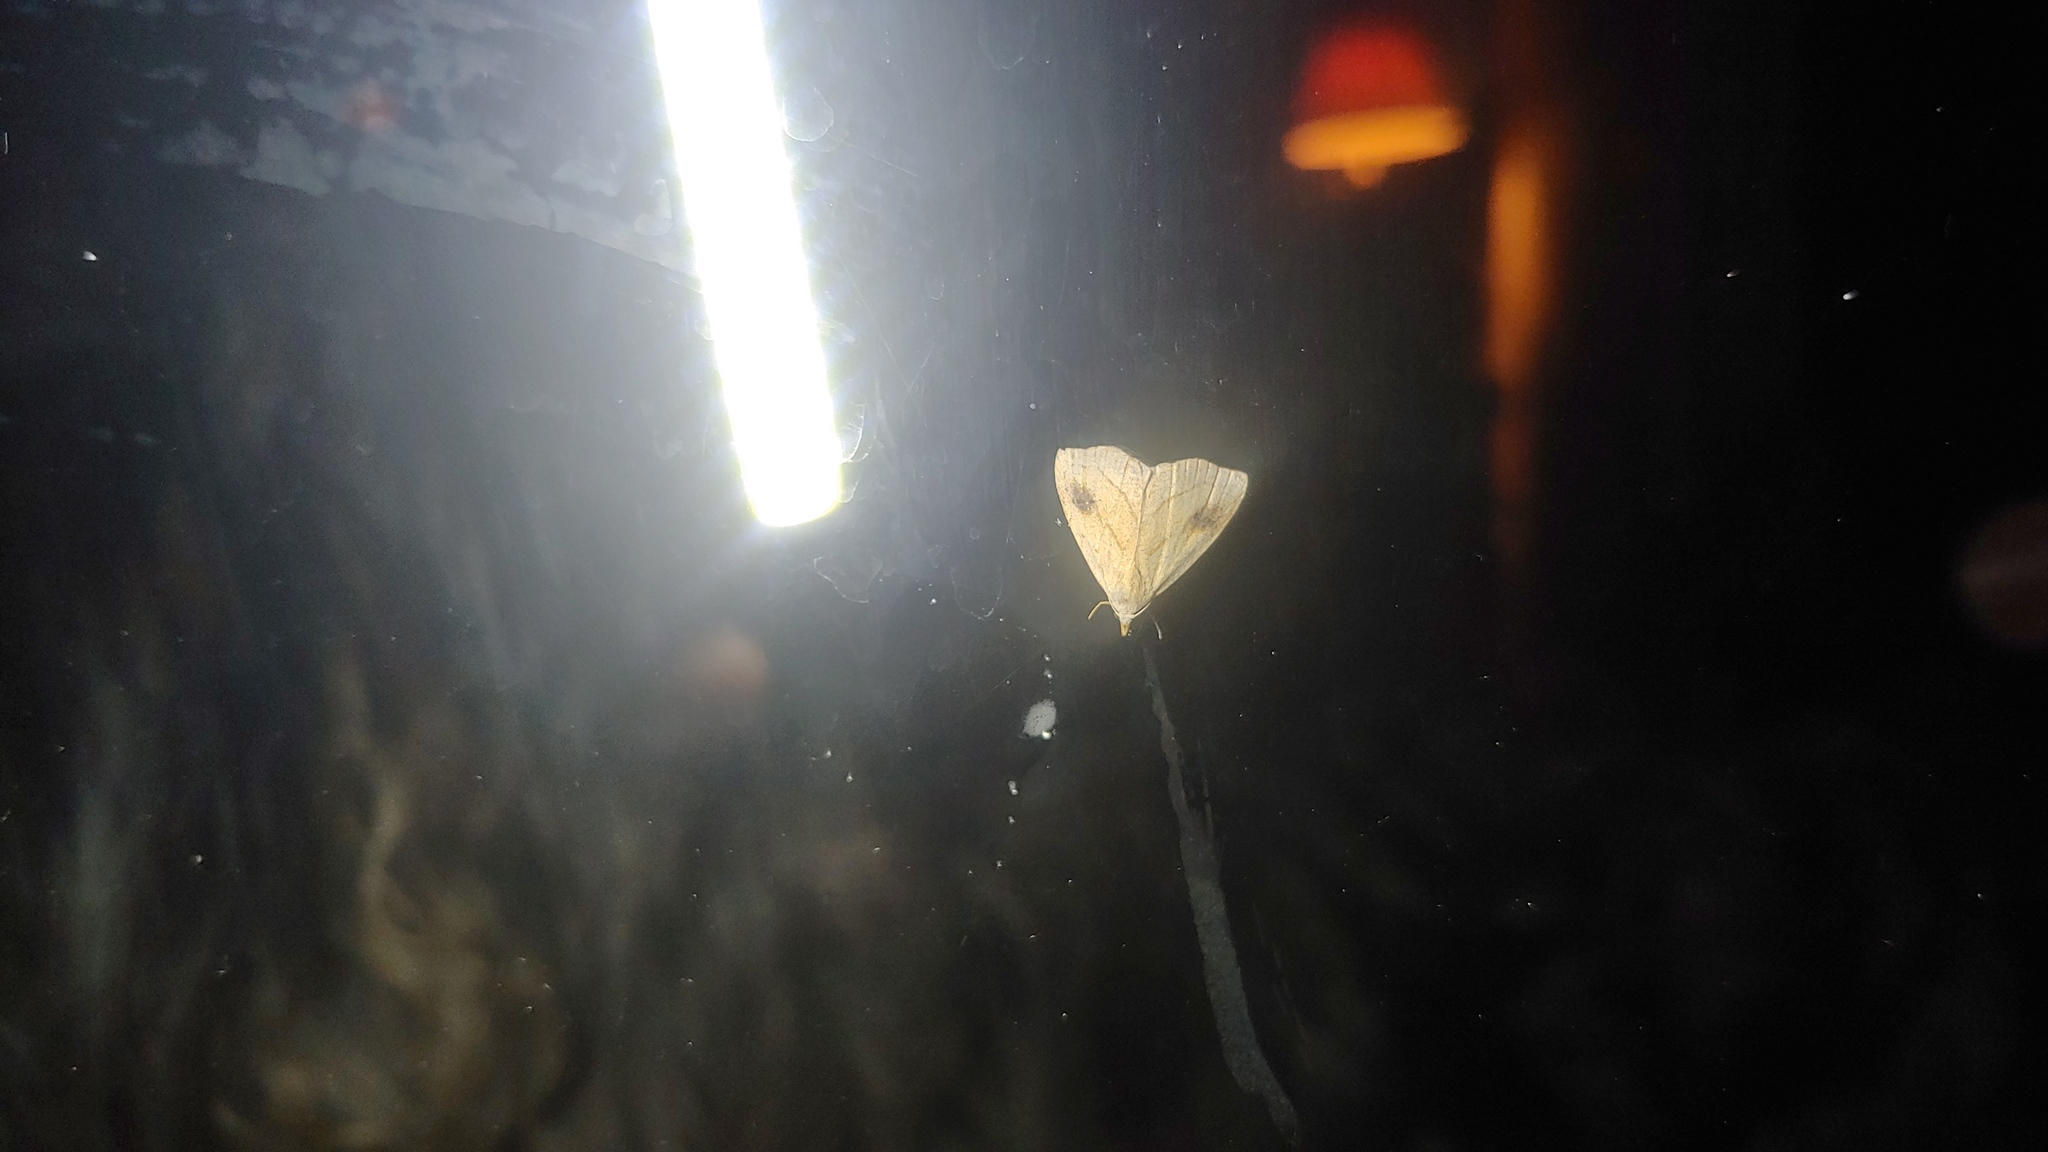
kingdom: Animalia
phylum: Arthropoda
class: Insecta
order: Lepidoptera
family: Erebidae
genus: Rivula
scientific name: Rivula propinqualis
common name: Spotted grass moth
